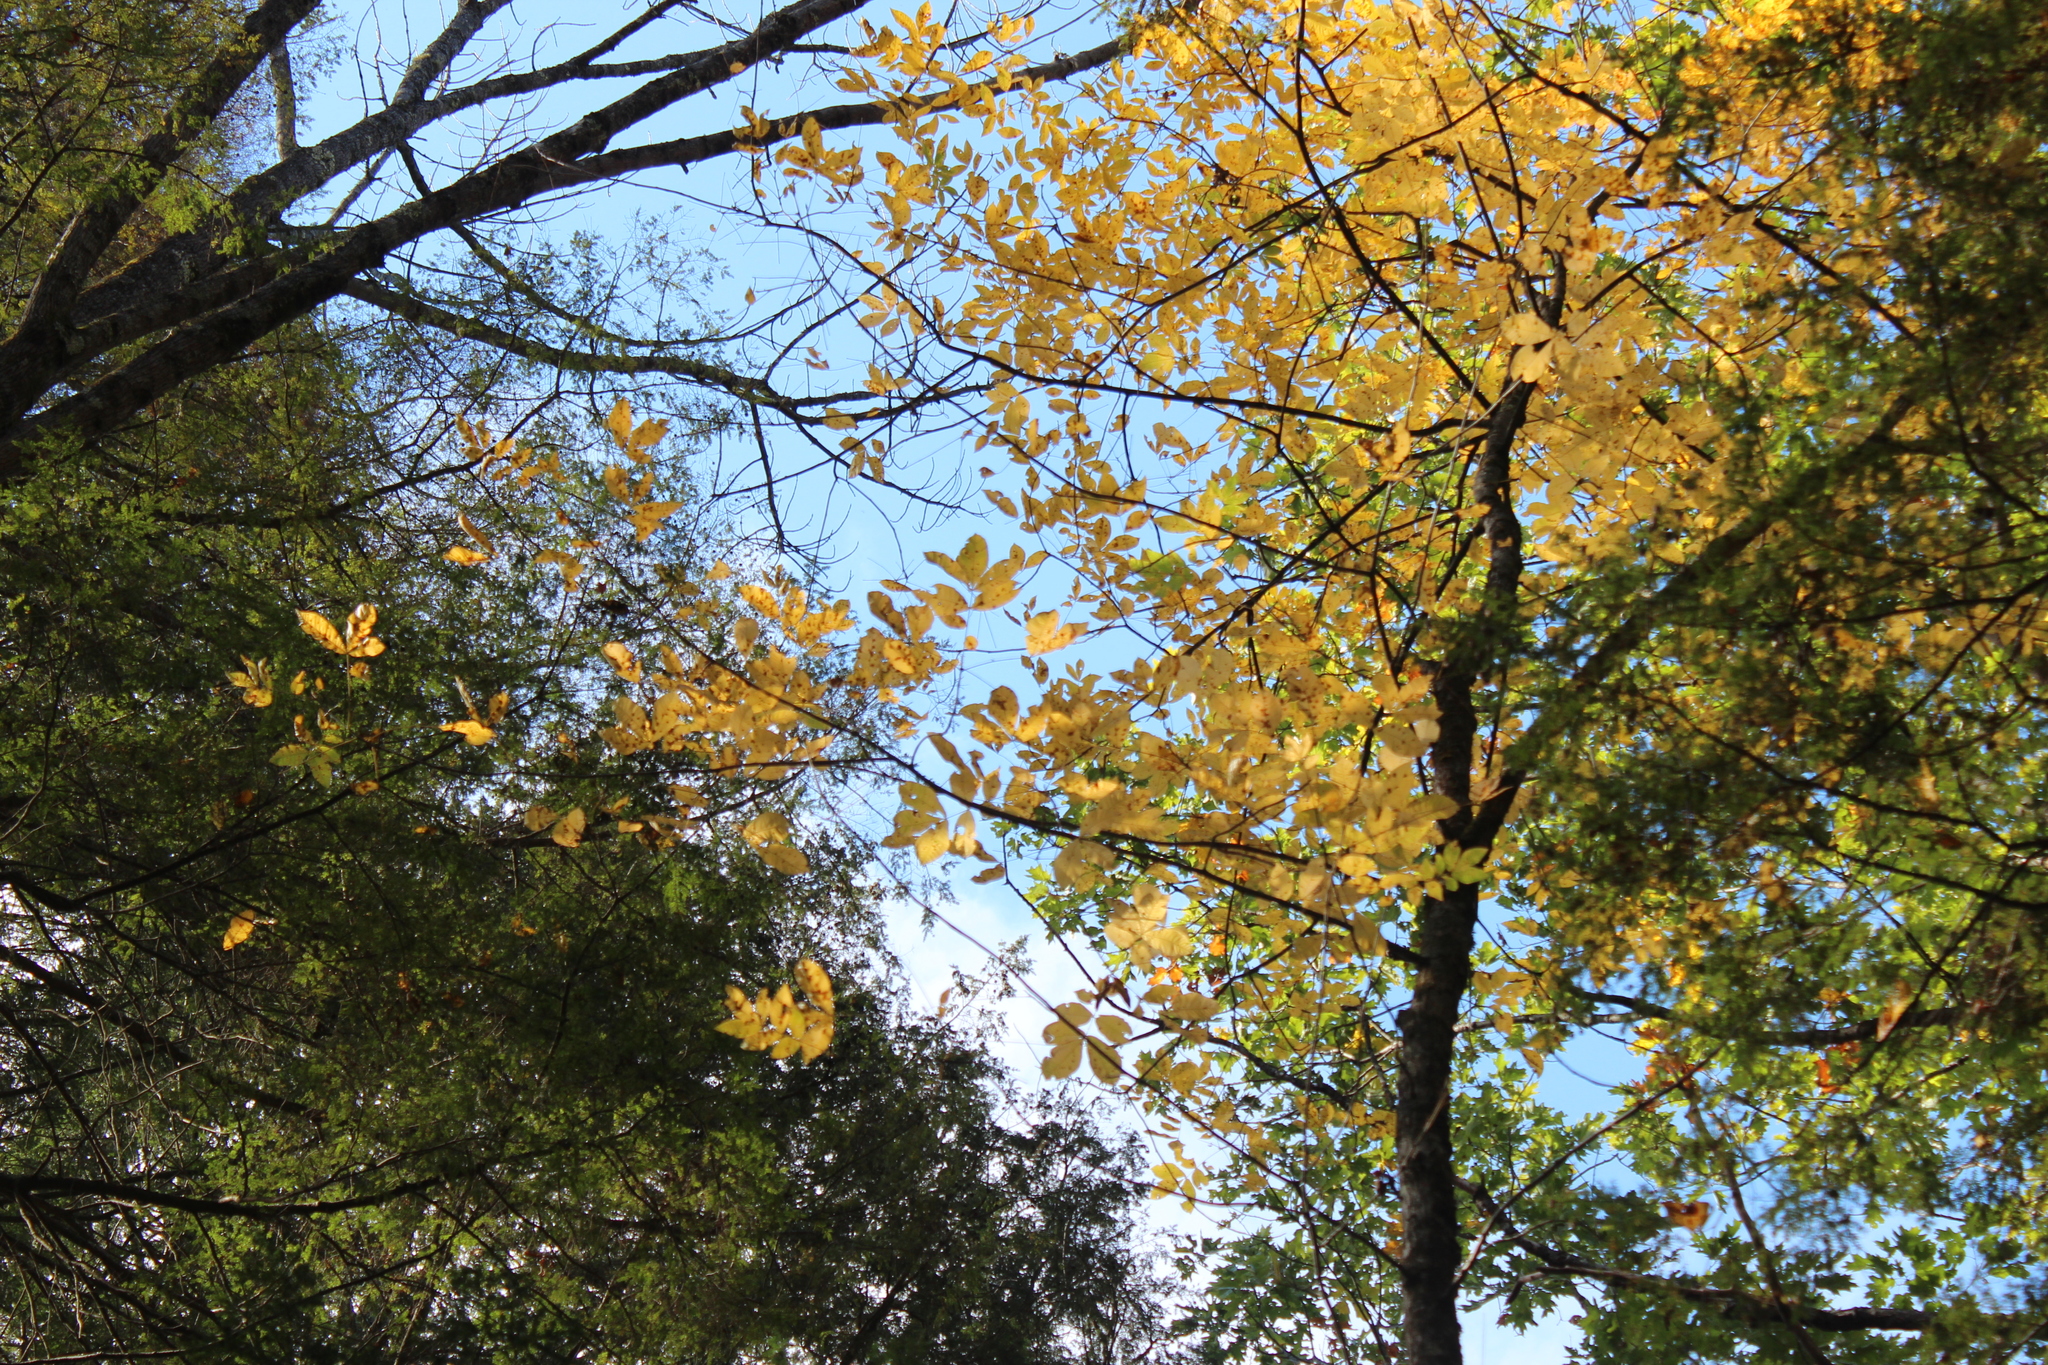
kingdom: Plantae
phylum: Tracheophyta
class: Magnoliopsida
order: Fagales
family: Juglandaceae
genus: Carya
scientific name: Carya cordiformis
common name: Bitternut hickory
